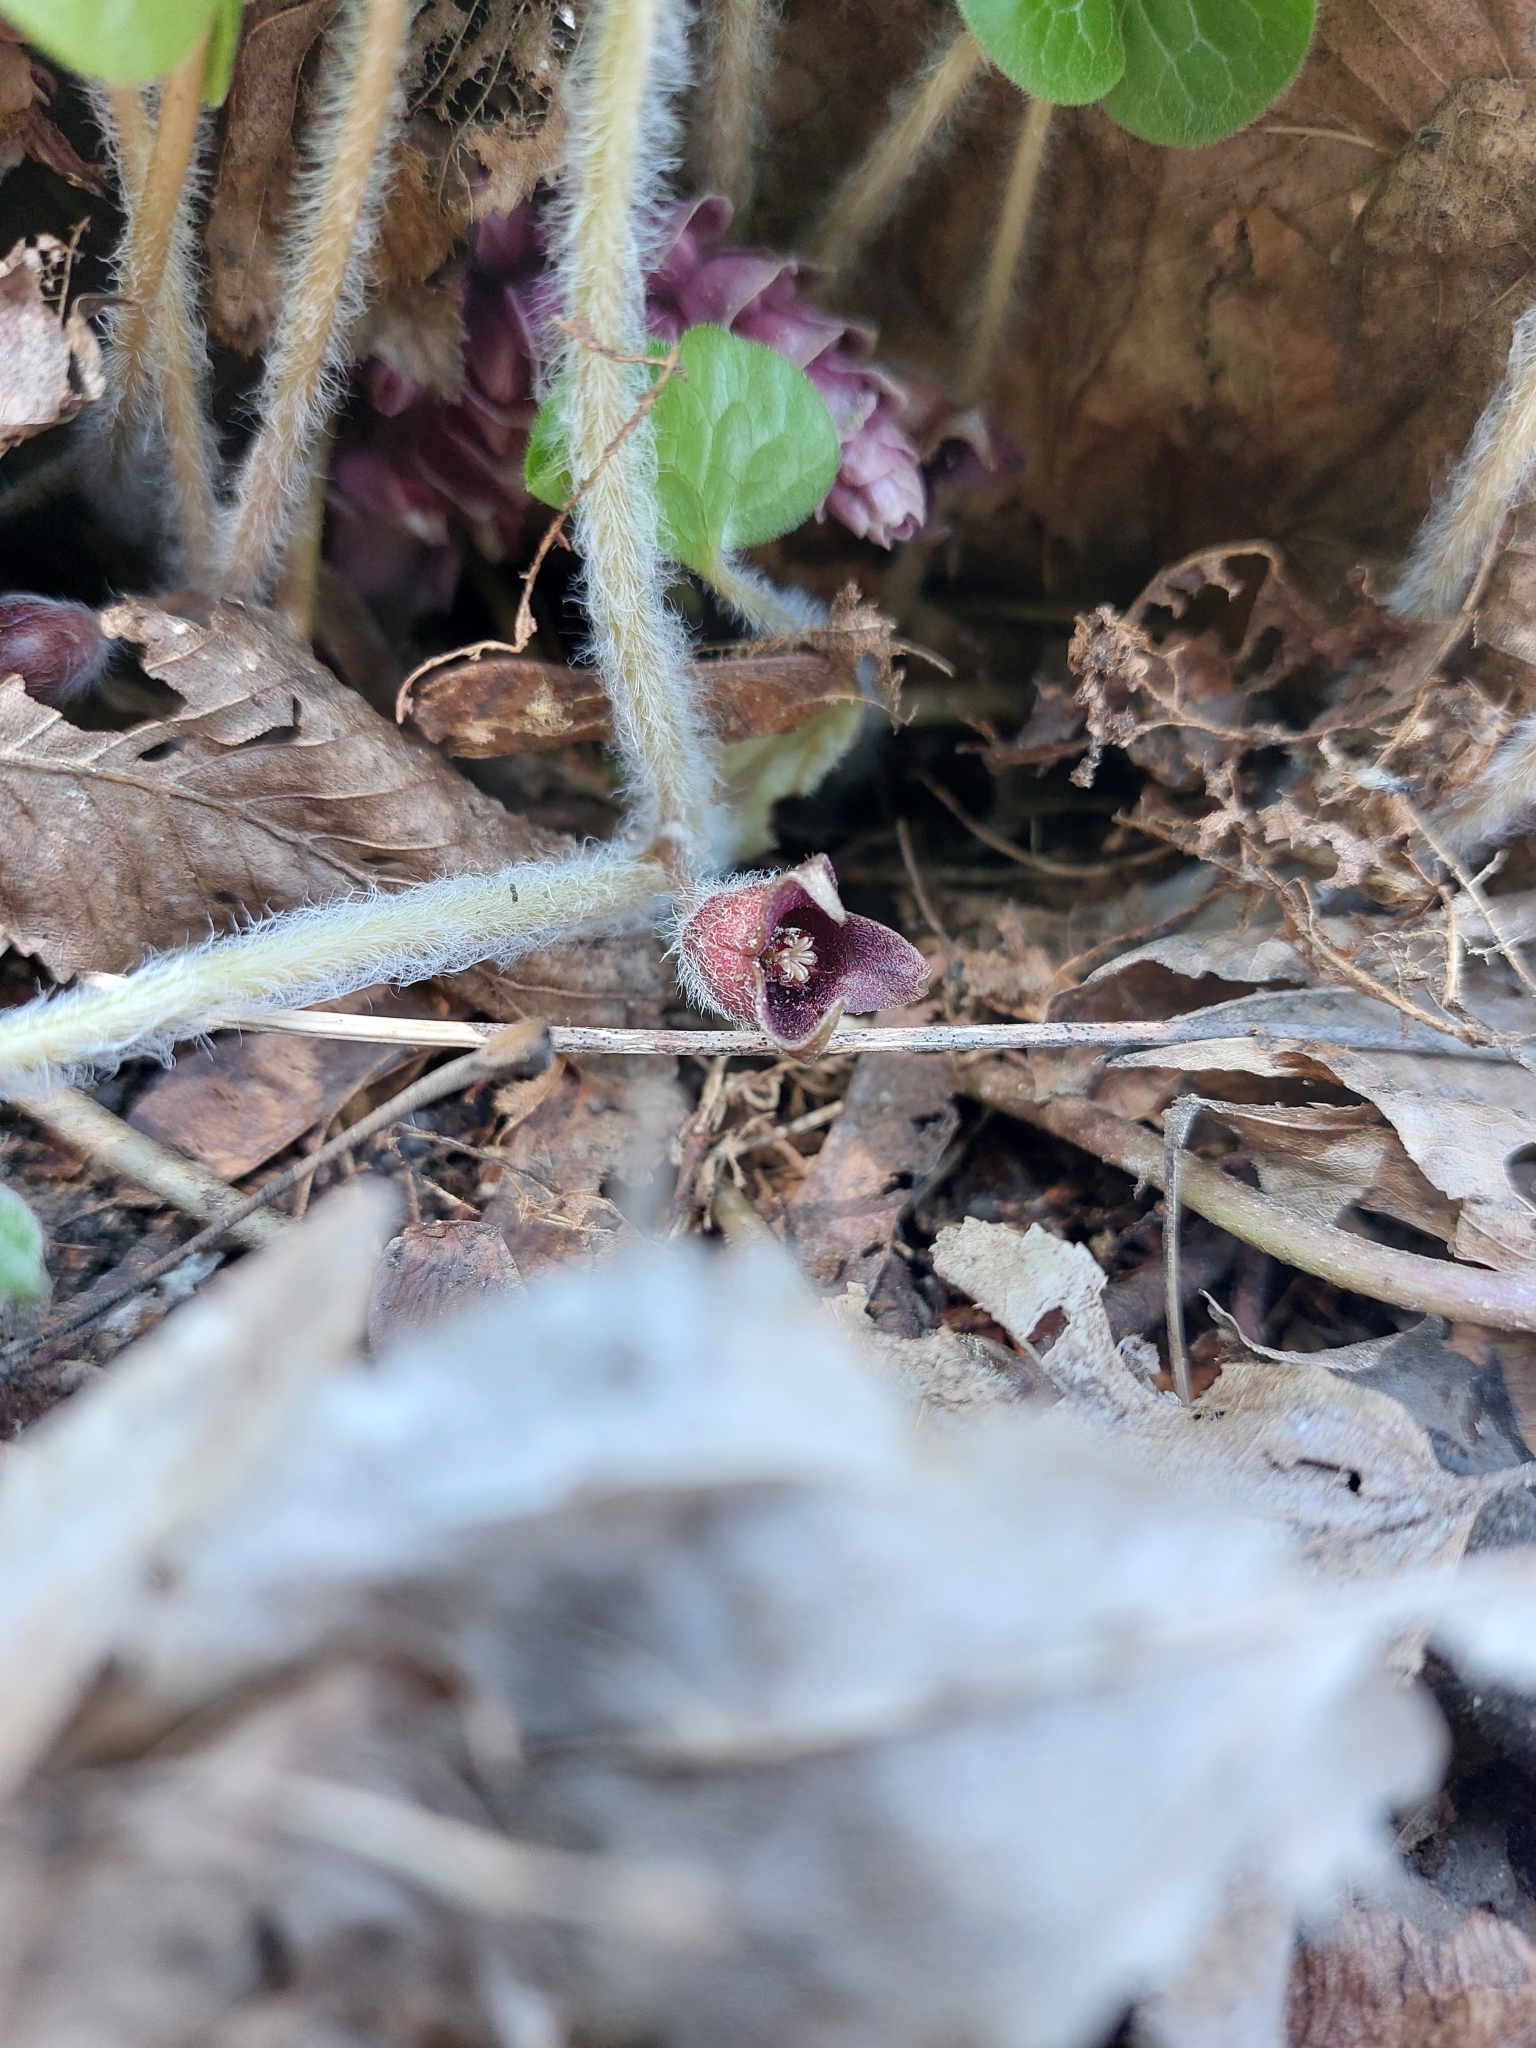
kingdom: Plantae
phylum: Tracheophyta
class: Magnoliopsida
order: Piperales
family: Aristolochiaceae
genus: Asarum
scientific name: Asarum europaeum
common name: Asarabacca
